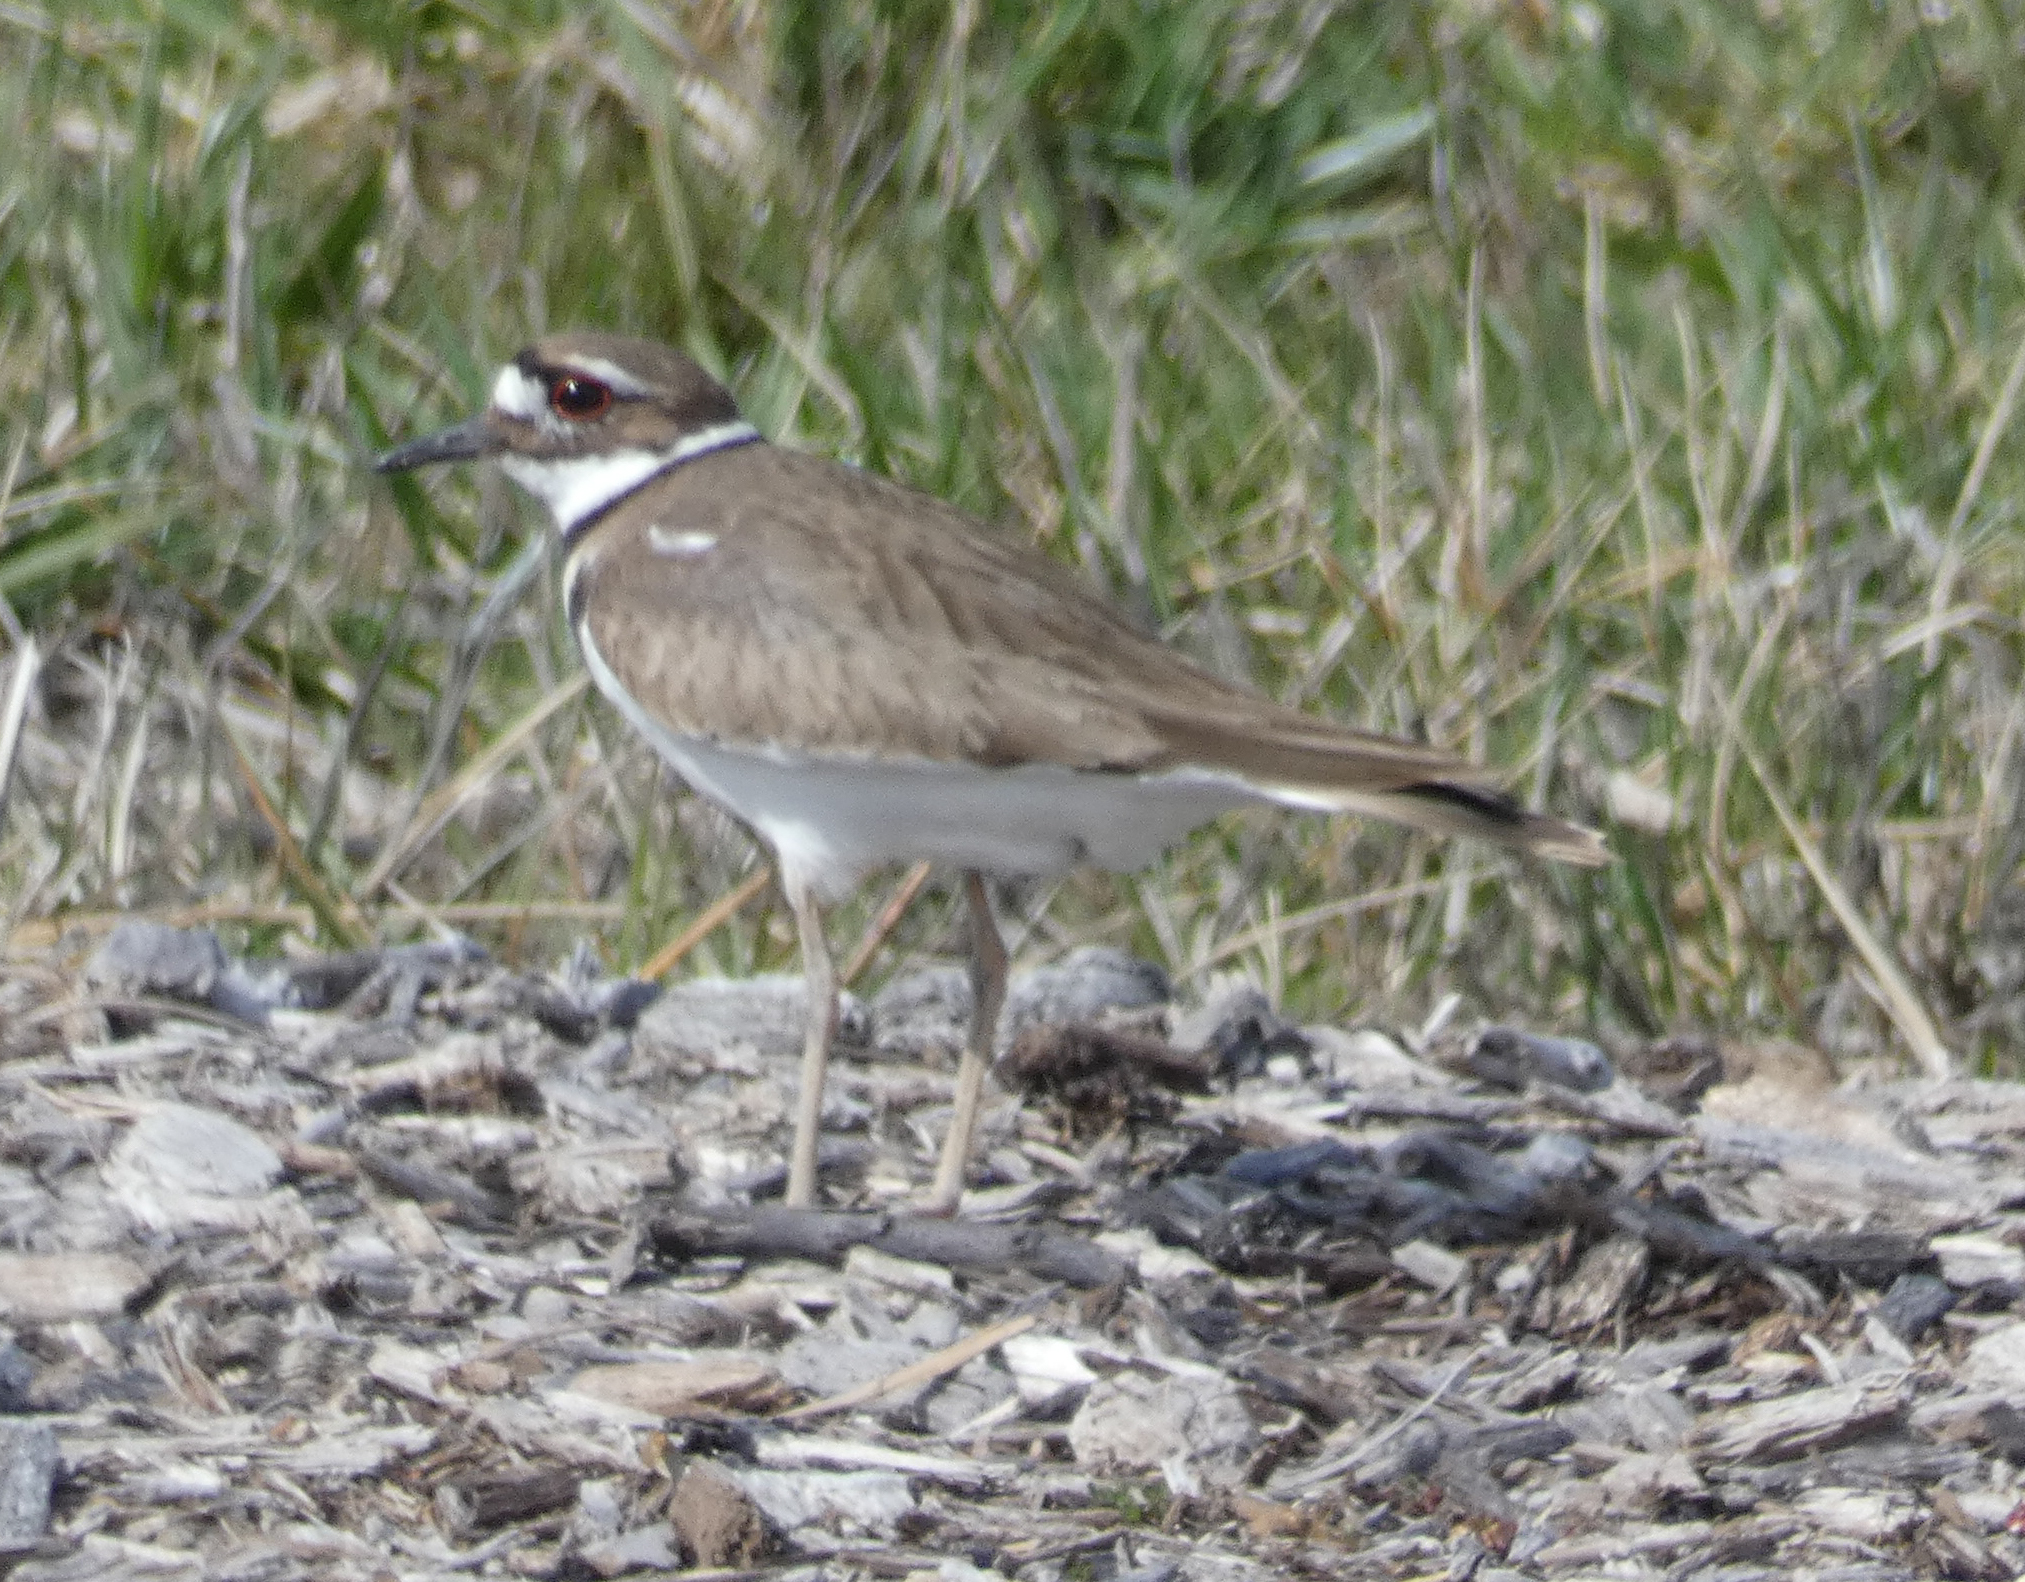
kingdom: Animalia
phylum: Chordata
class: Aves
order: Charadriiformes
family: Charadriidae
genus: Charadrius
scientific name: Charadrius vociferus
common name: Killdeer
